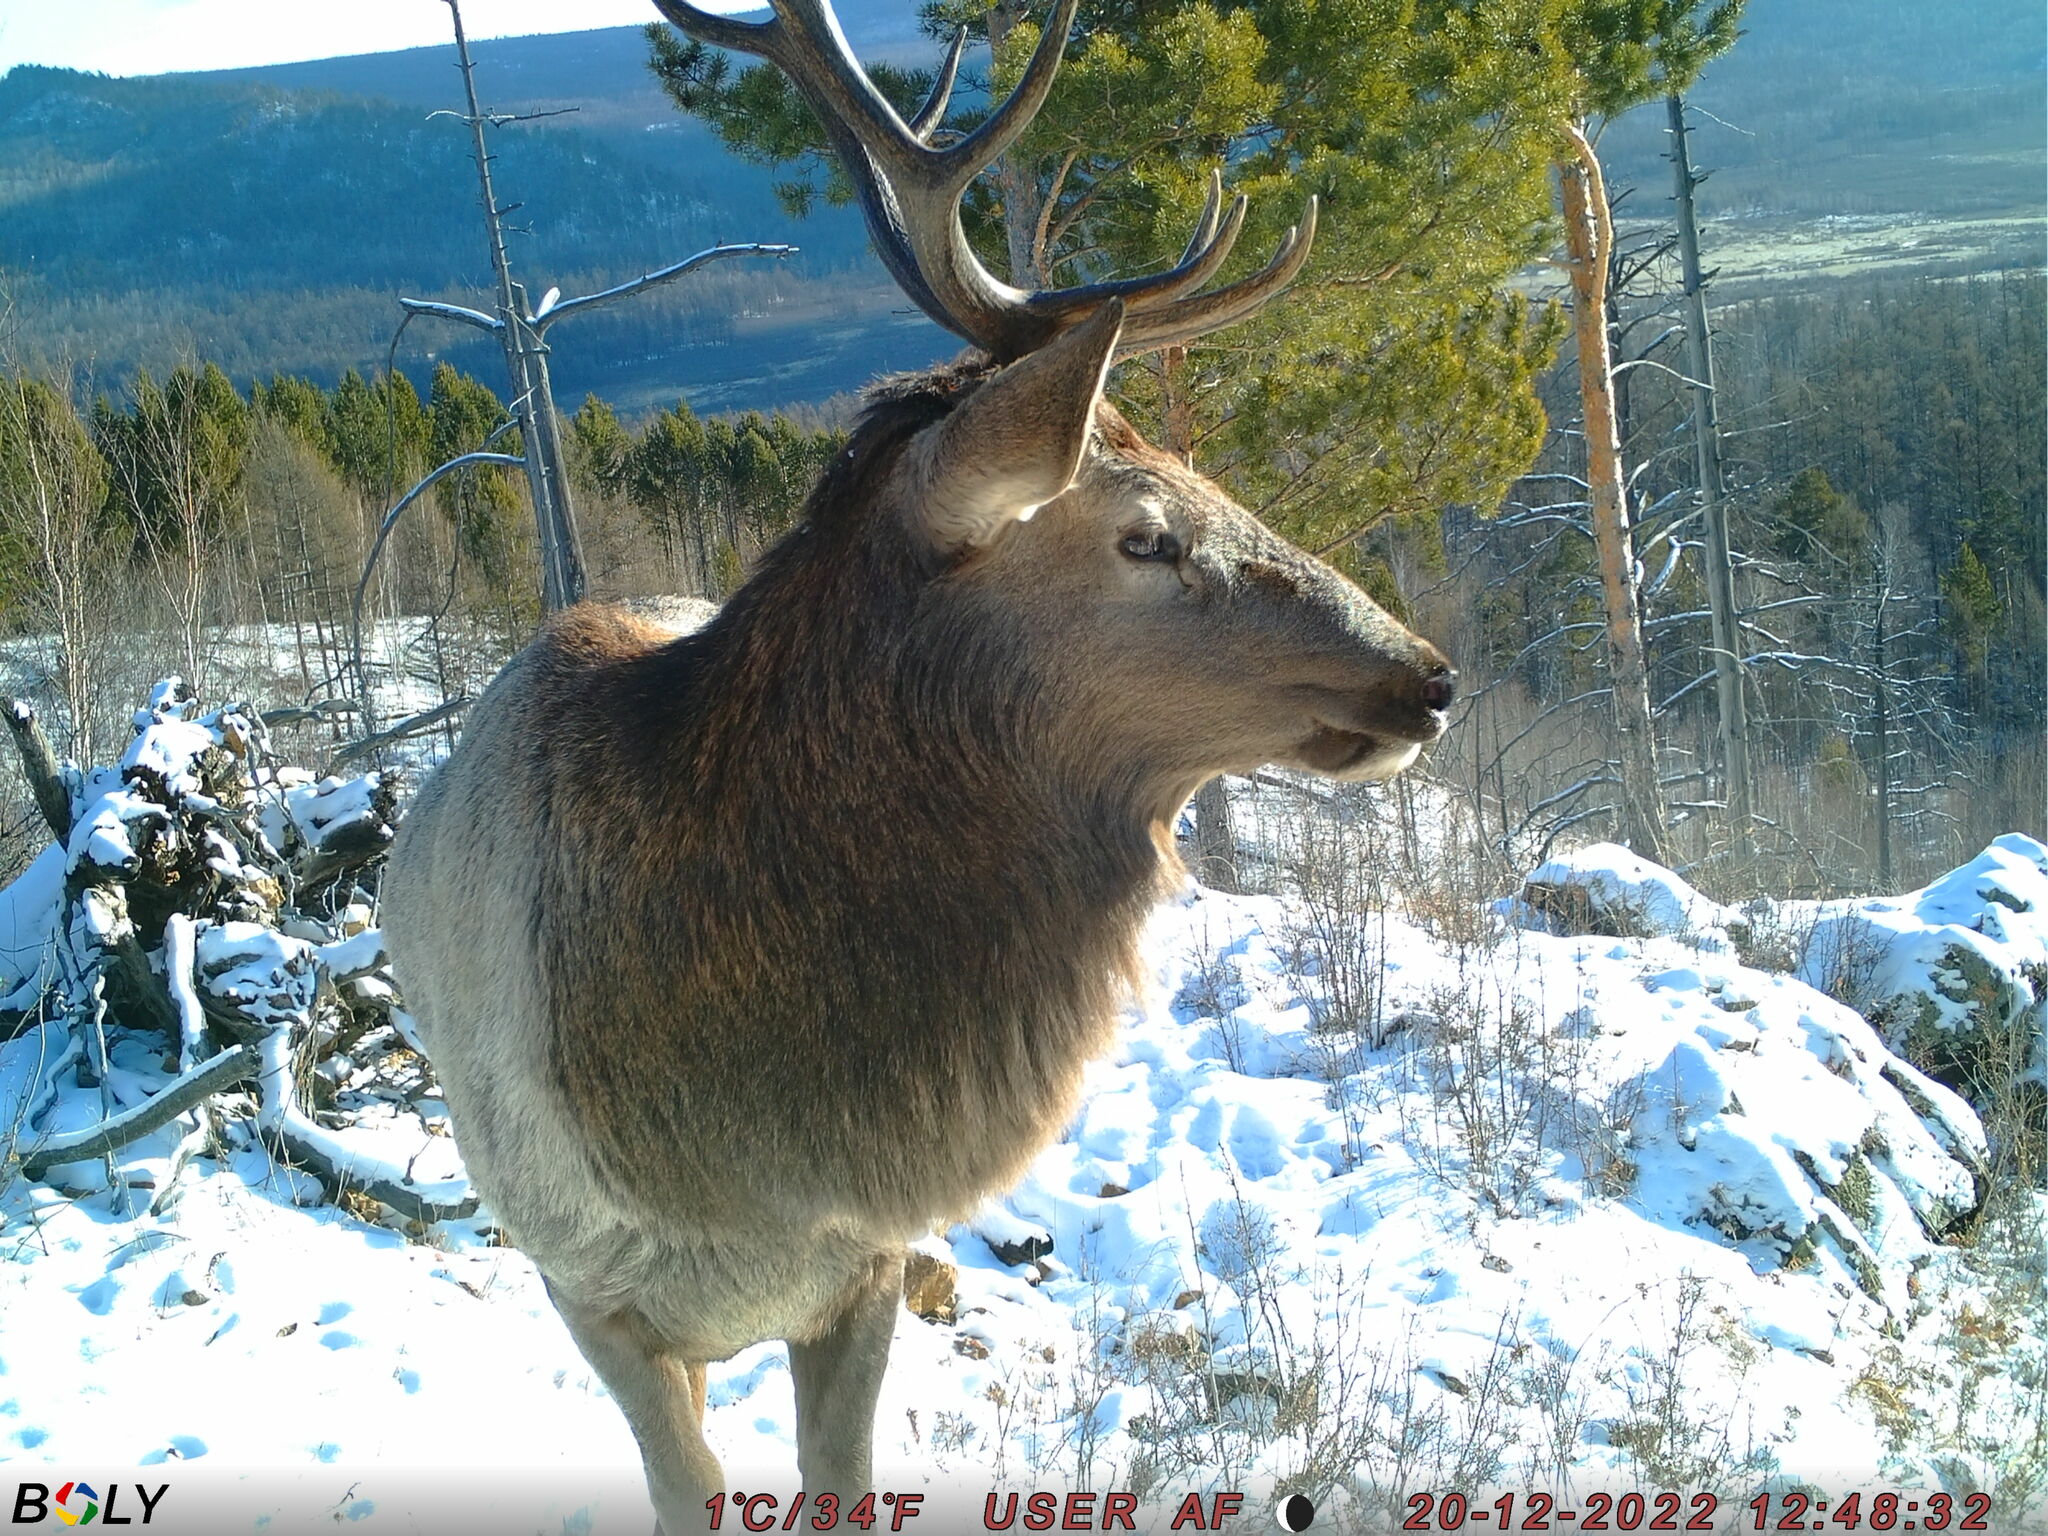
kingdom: Animalia
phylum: Chordata
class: Mammalia
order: Artiodactyla
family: Cervidae
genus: Cervus
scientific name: Cervus elaphus
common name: Red deer
